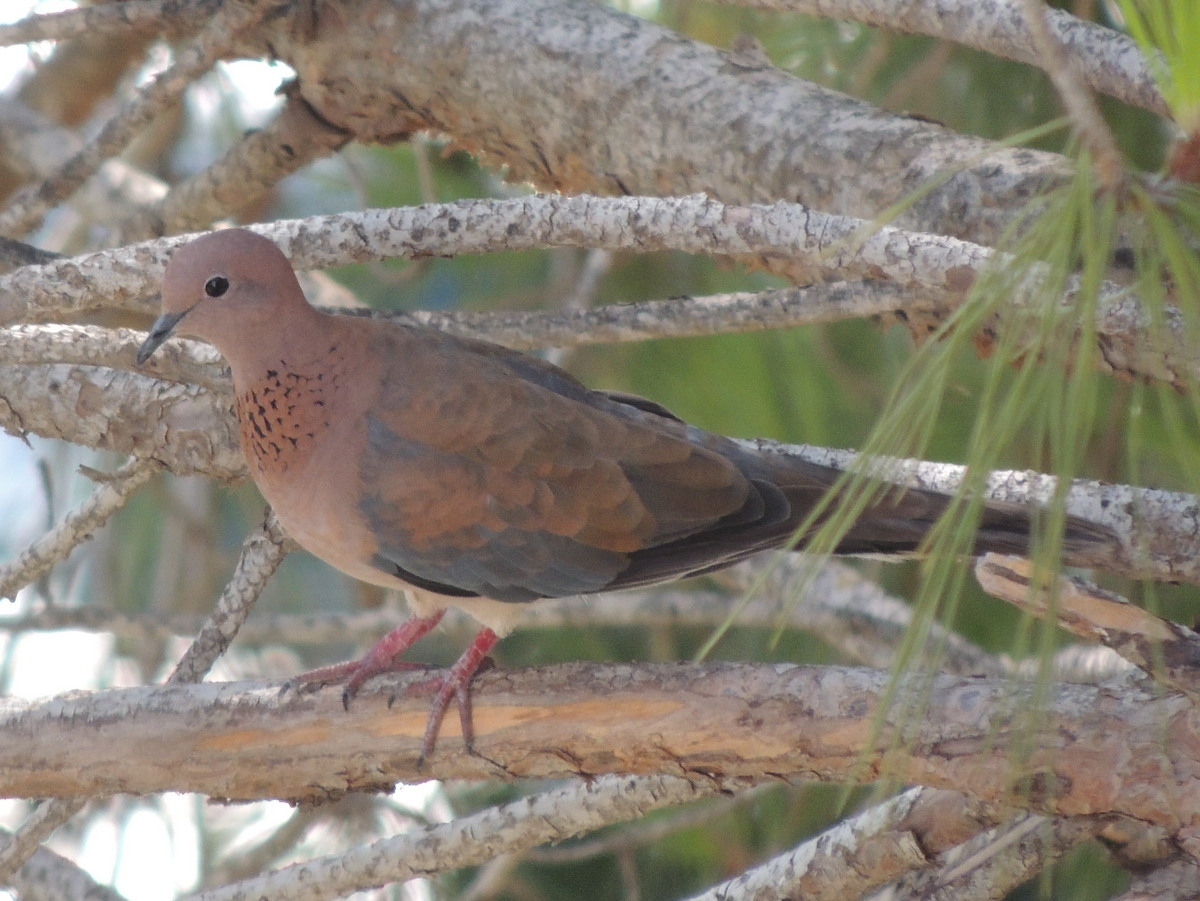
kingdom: Animalia
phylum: Chordata
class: Aves
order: Columbiformes
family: Columbidae
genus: Spilopelia
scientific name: Spilopelia senegalensis
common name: Laughing dove
